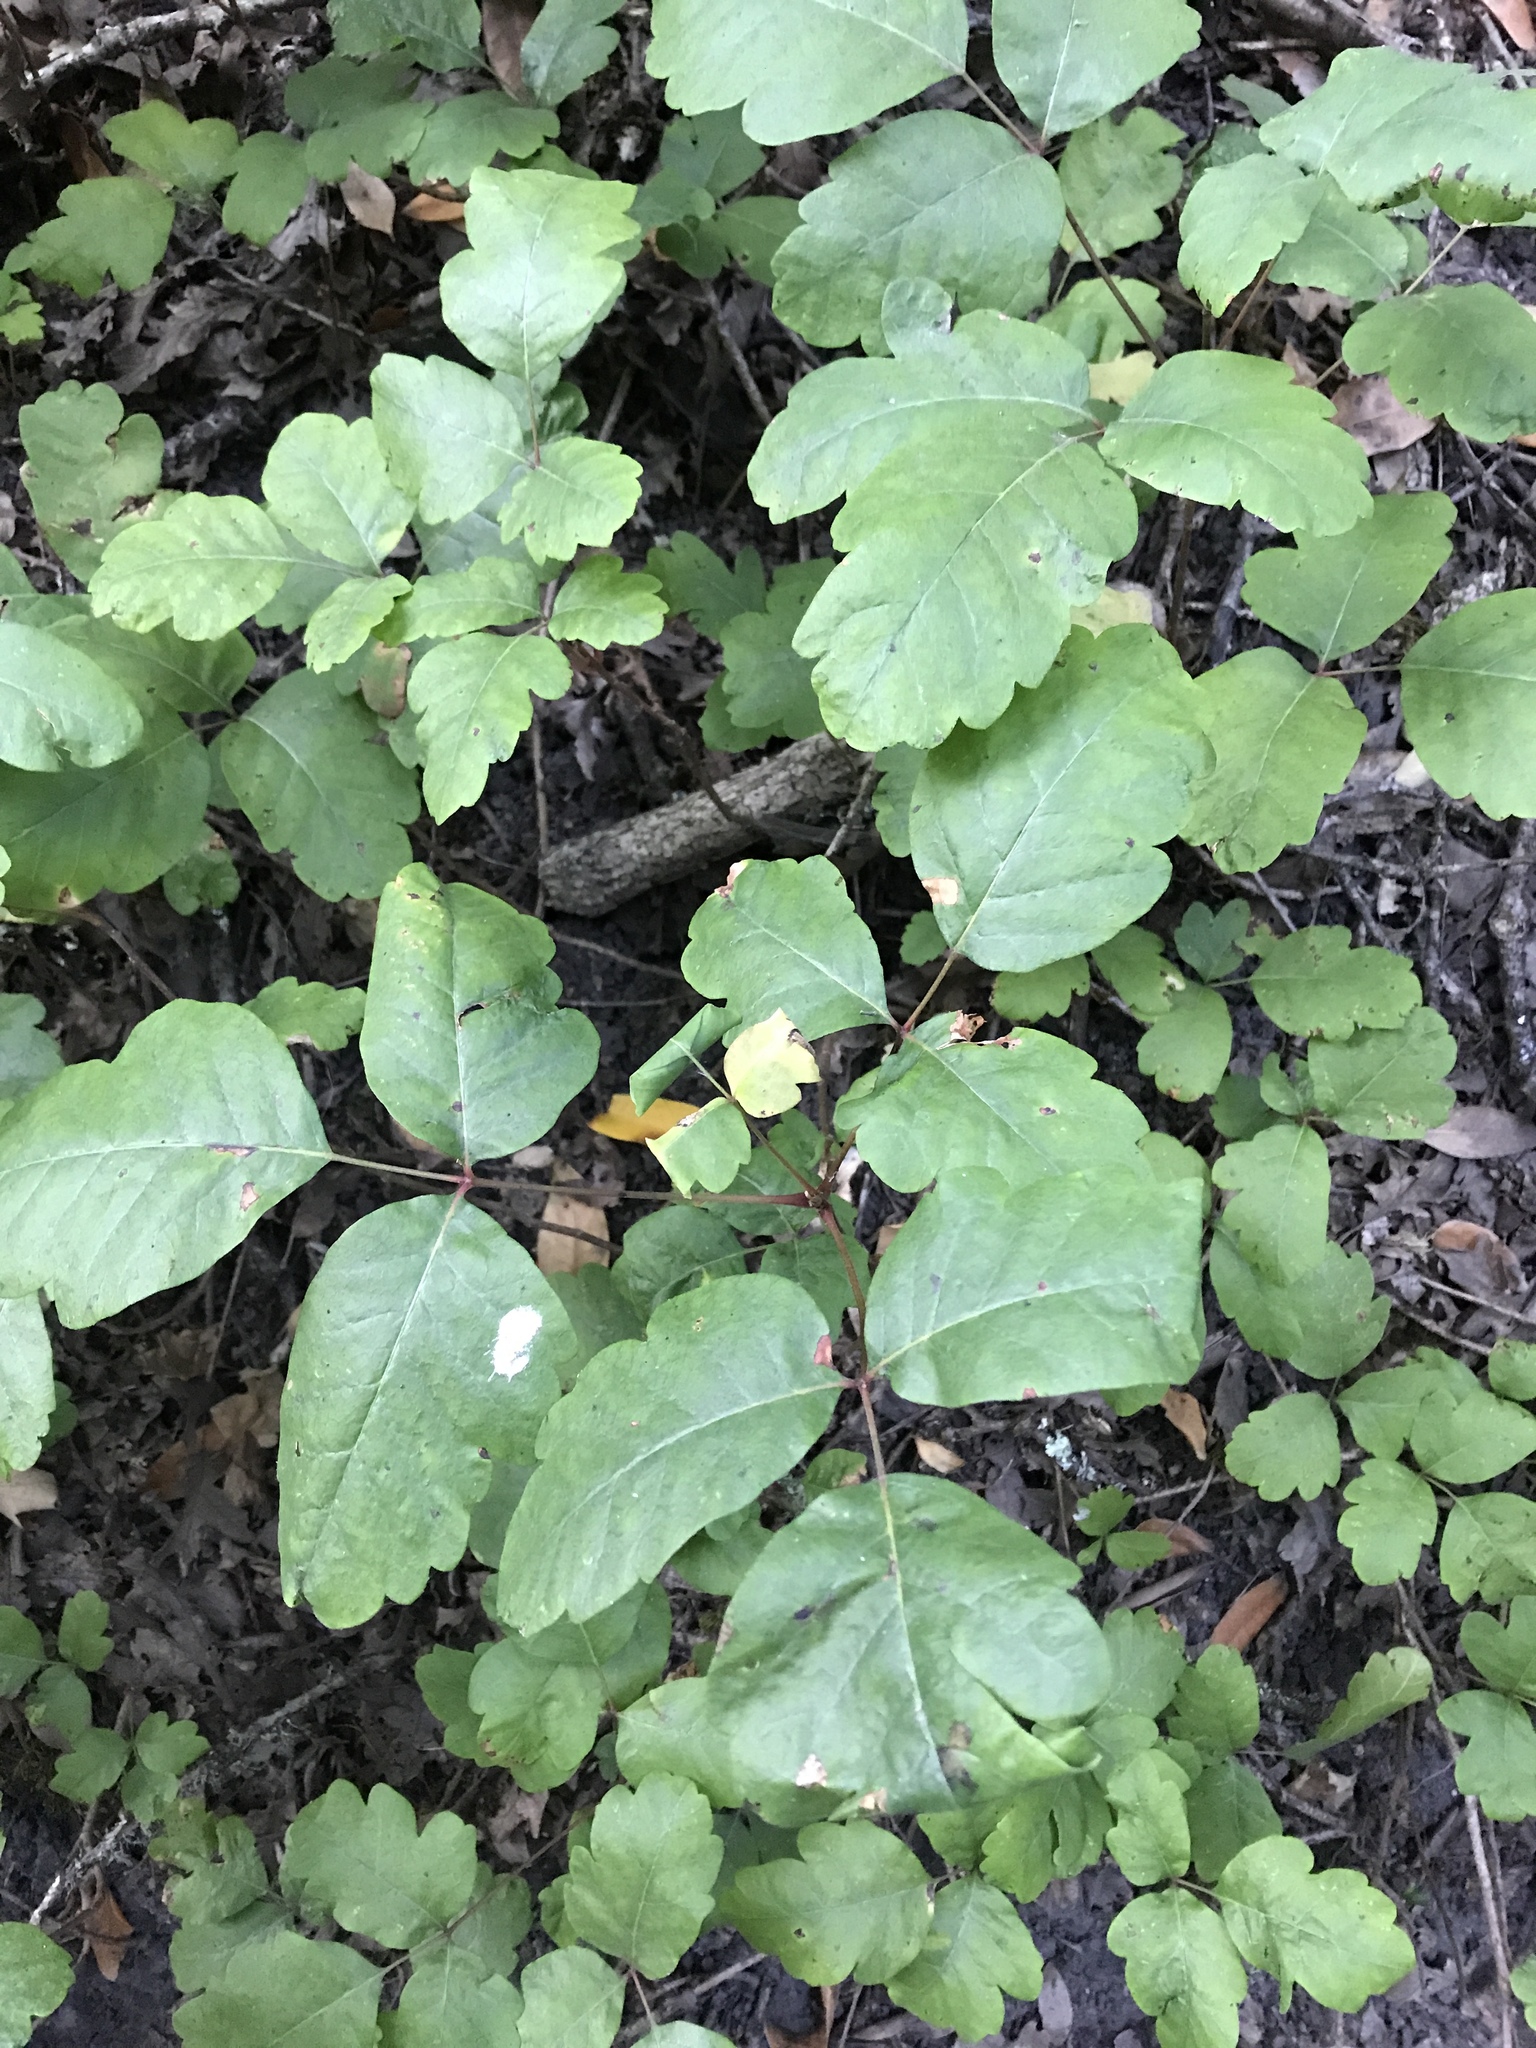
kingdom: Plantae
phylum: Tracheophyta
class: Magnoliopsida
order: Sapindales
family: Anacardiaceae
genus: Toxicodendron
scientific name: Toxicodendron diversilobum
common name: Pacific poison-oak
